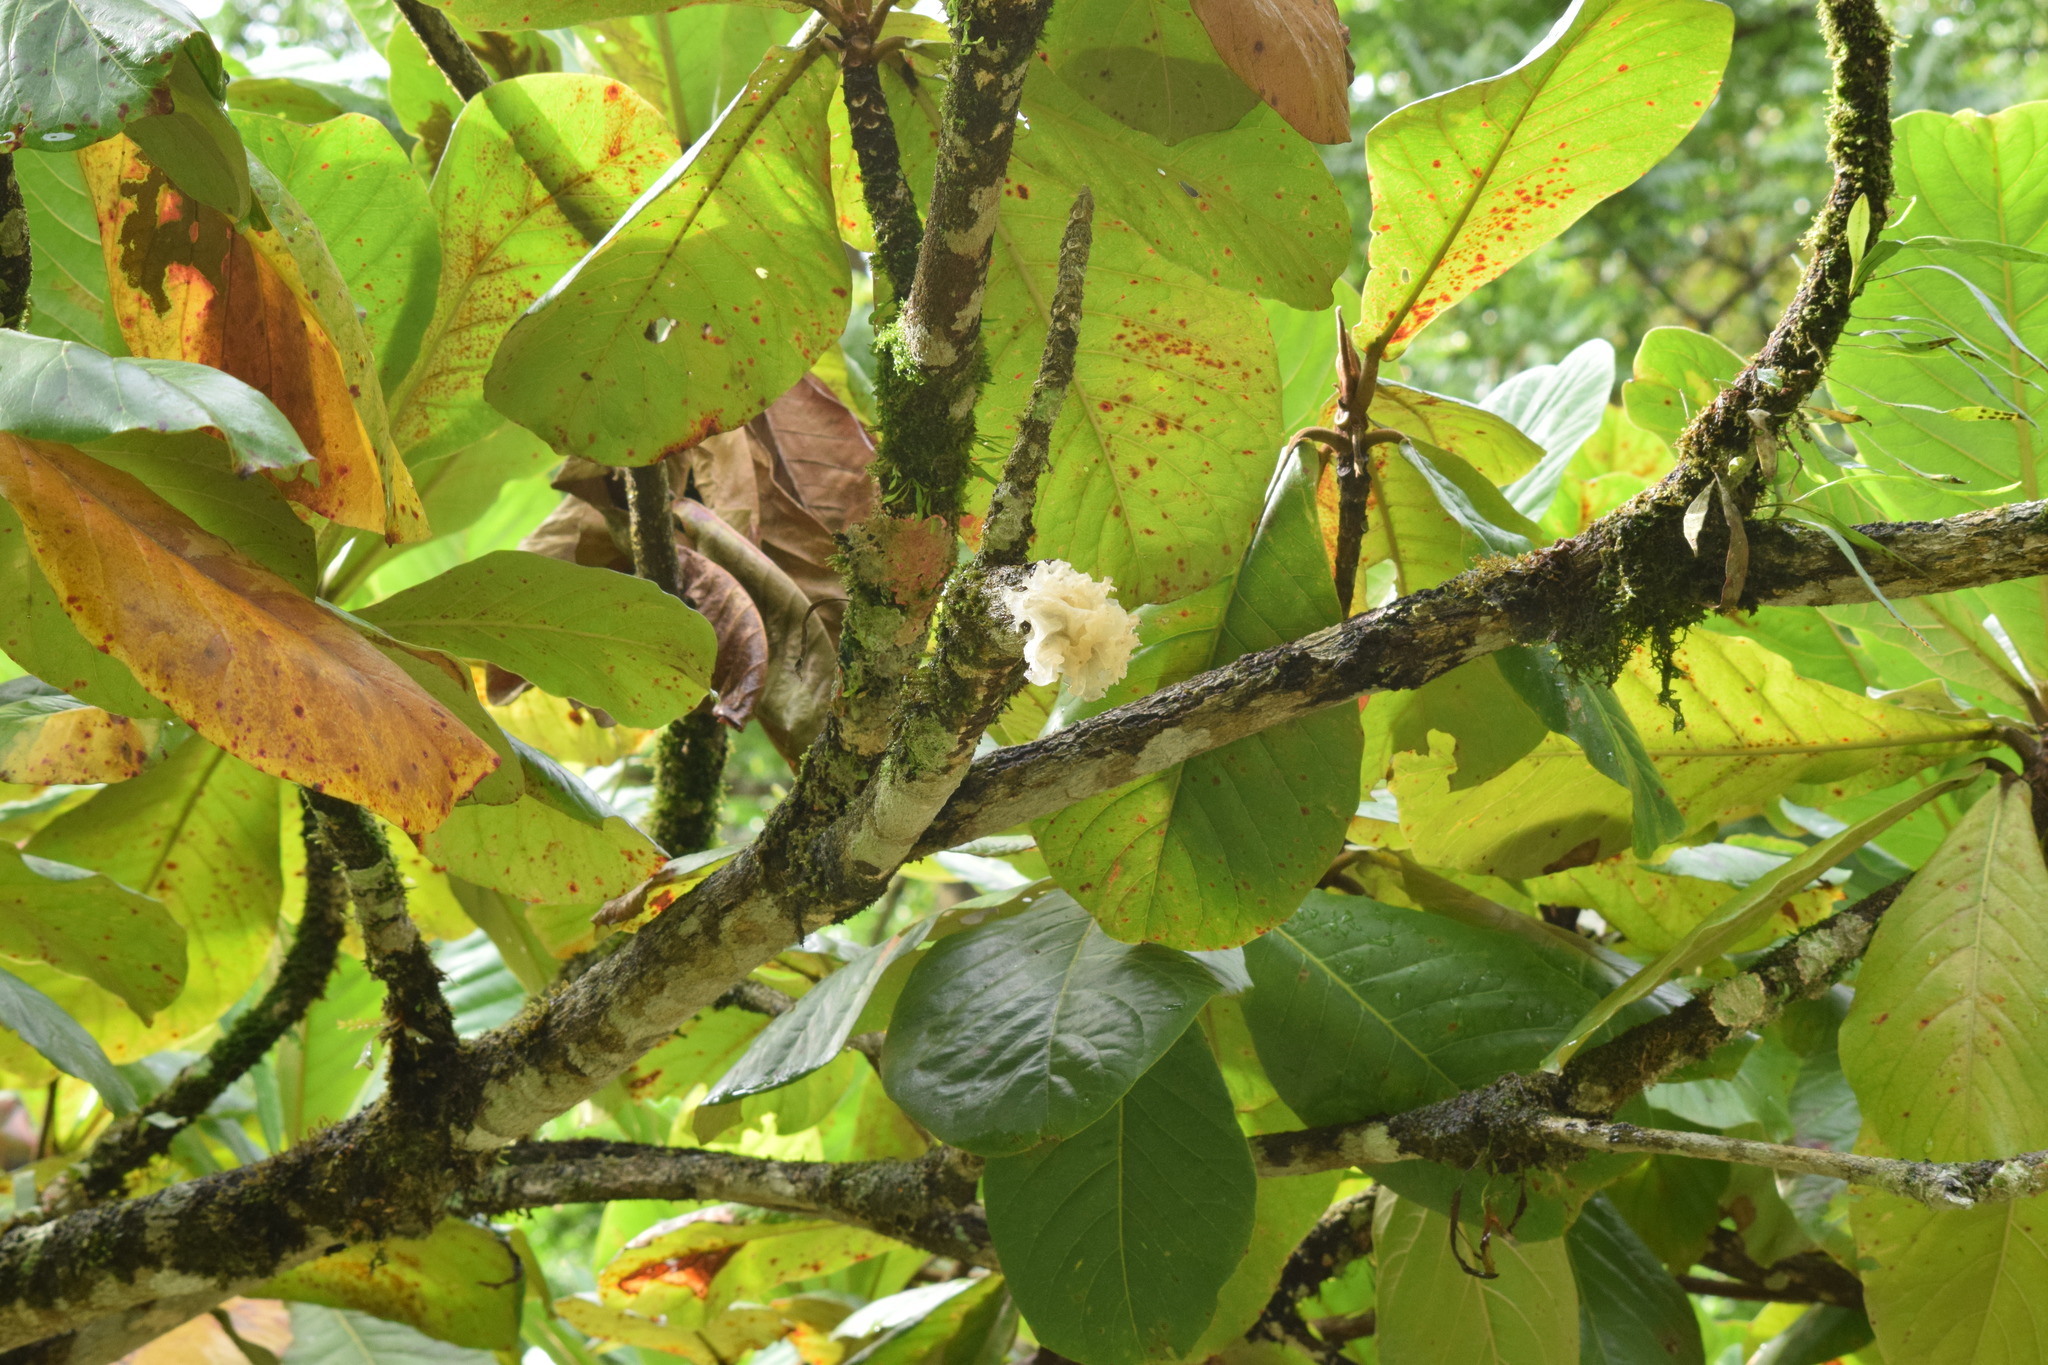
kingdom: Fungi
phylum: Basidiomycota
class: Tremellomycetes
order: Tremellales
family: Tremellaceae
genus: Tremella
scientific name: Tremella fuciformis
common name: Snow fungus
